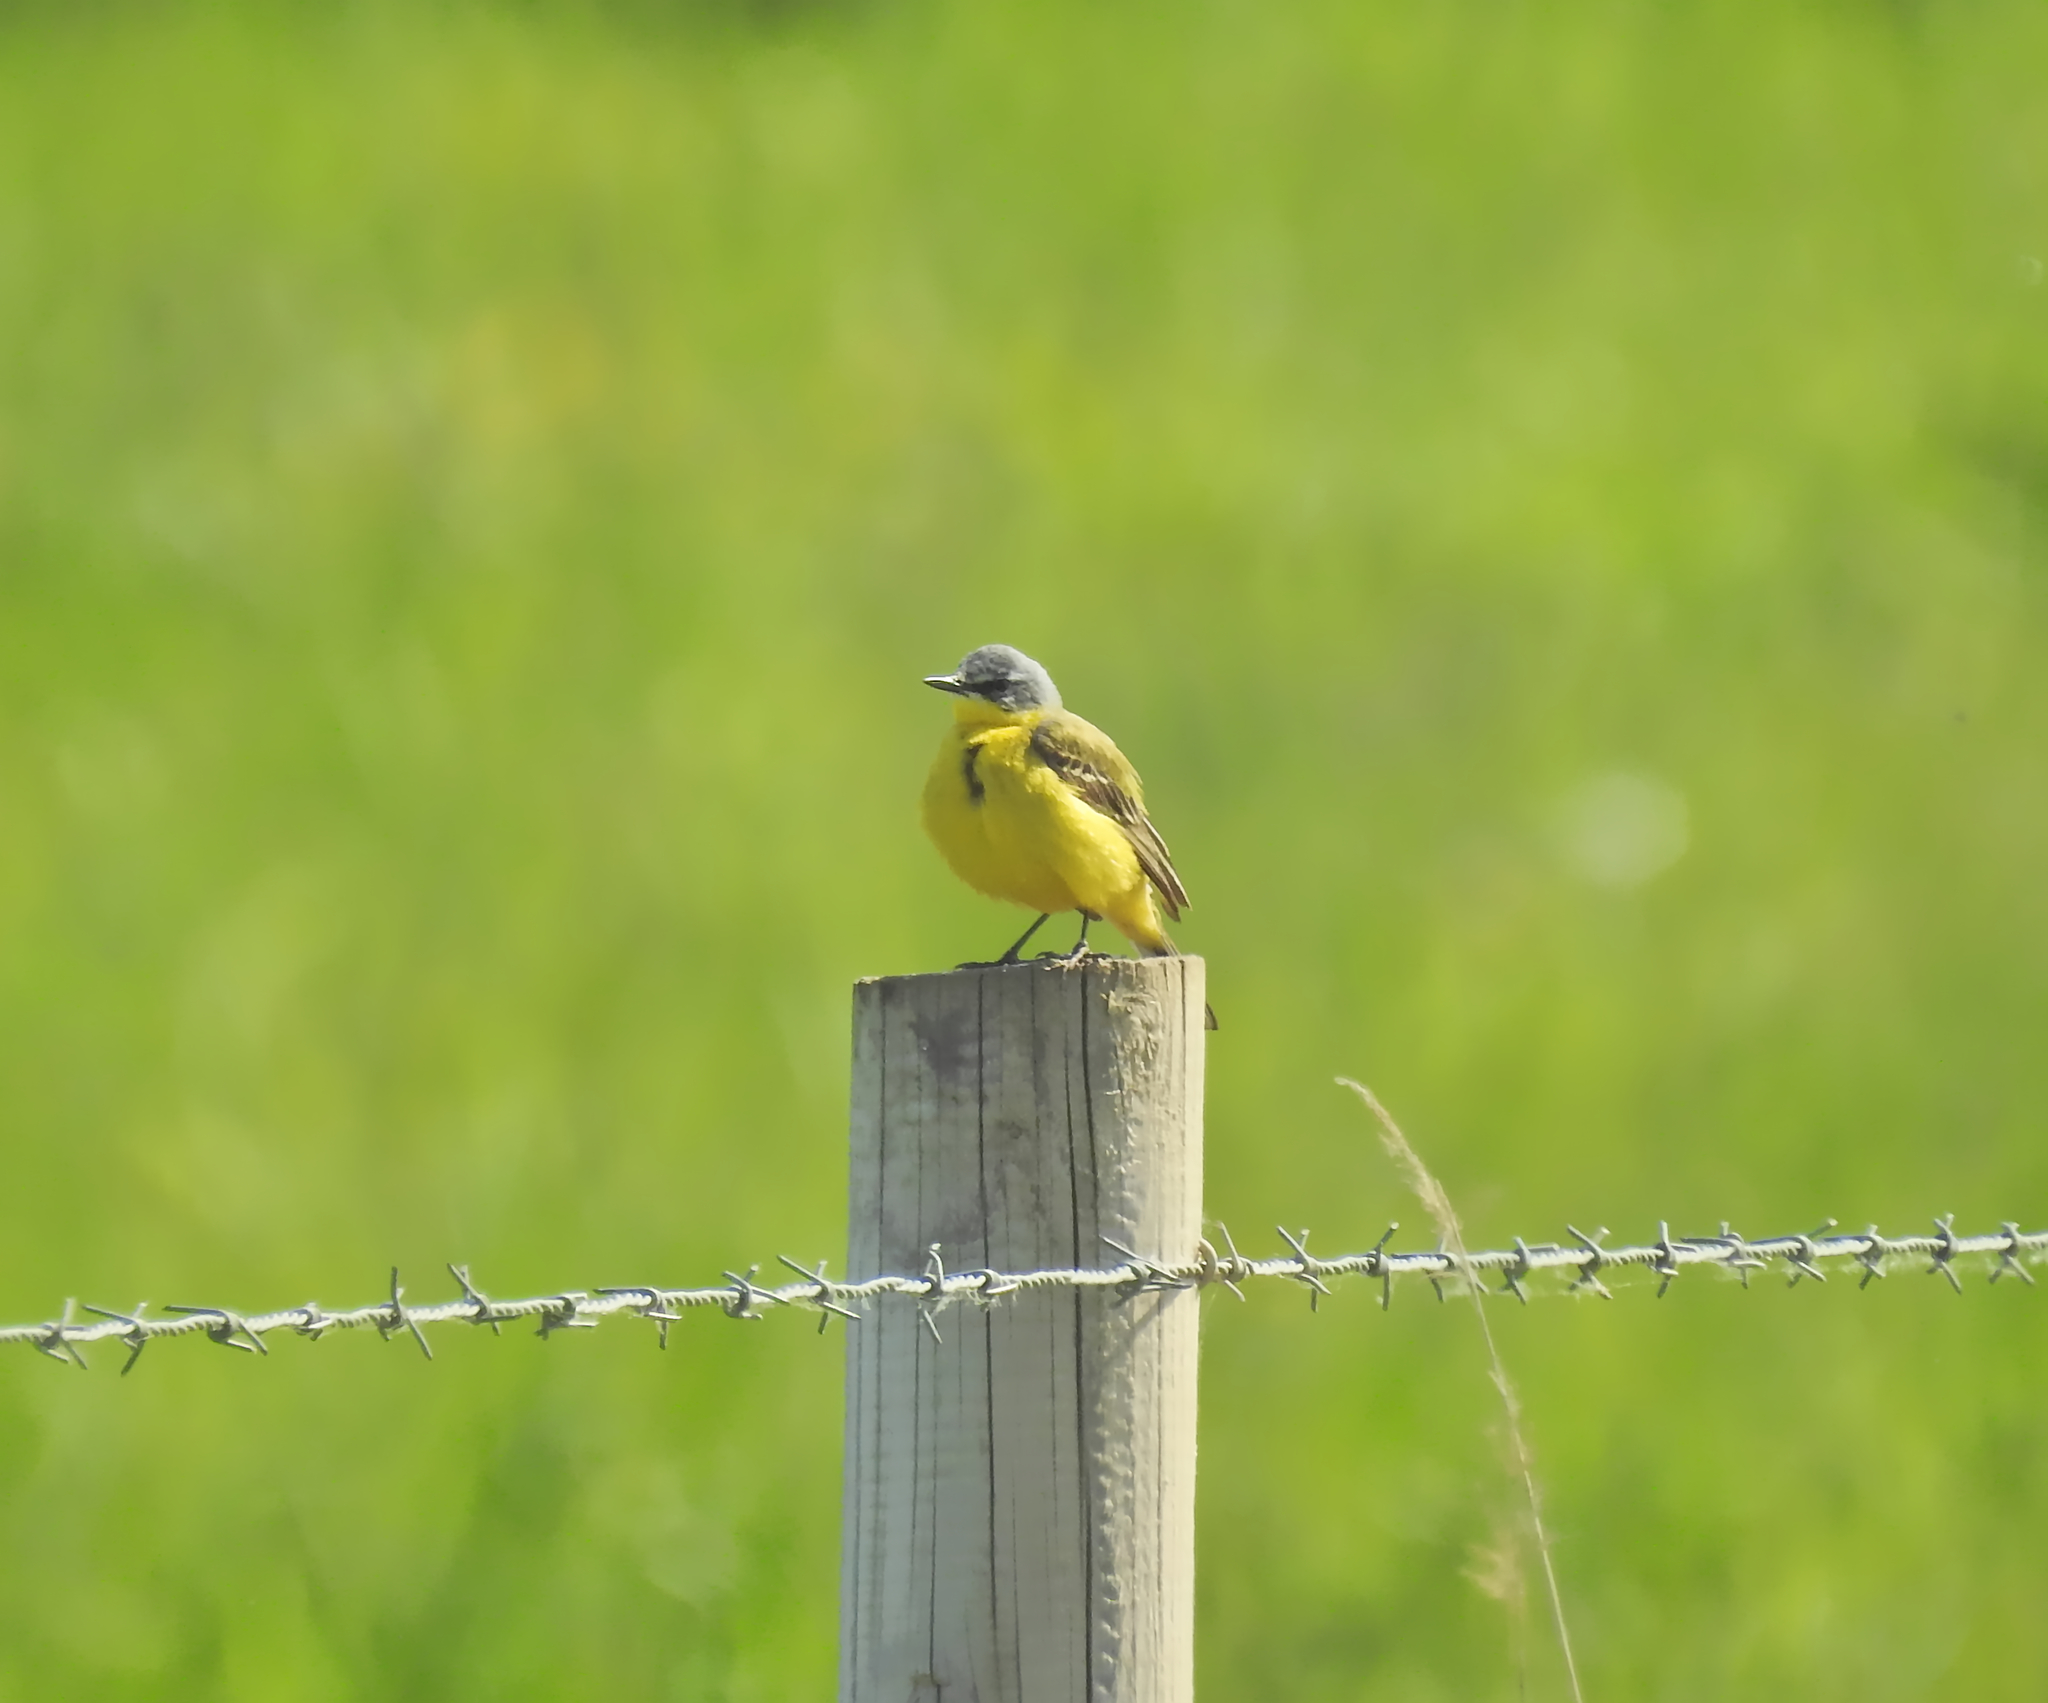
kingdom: Animalia
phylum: Chordata
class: Aves
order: Passeriformes
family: Motacillidae
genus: Motacilla
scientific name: Motacilla flava
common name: Western yellow wagtail
